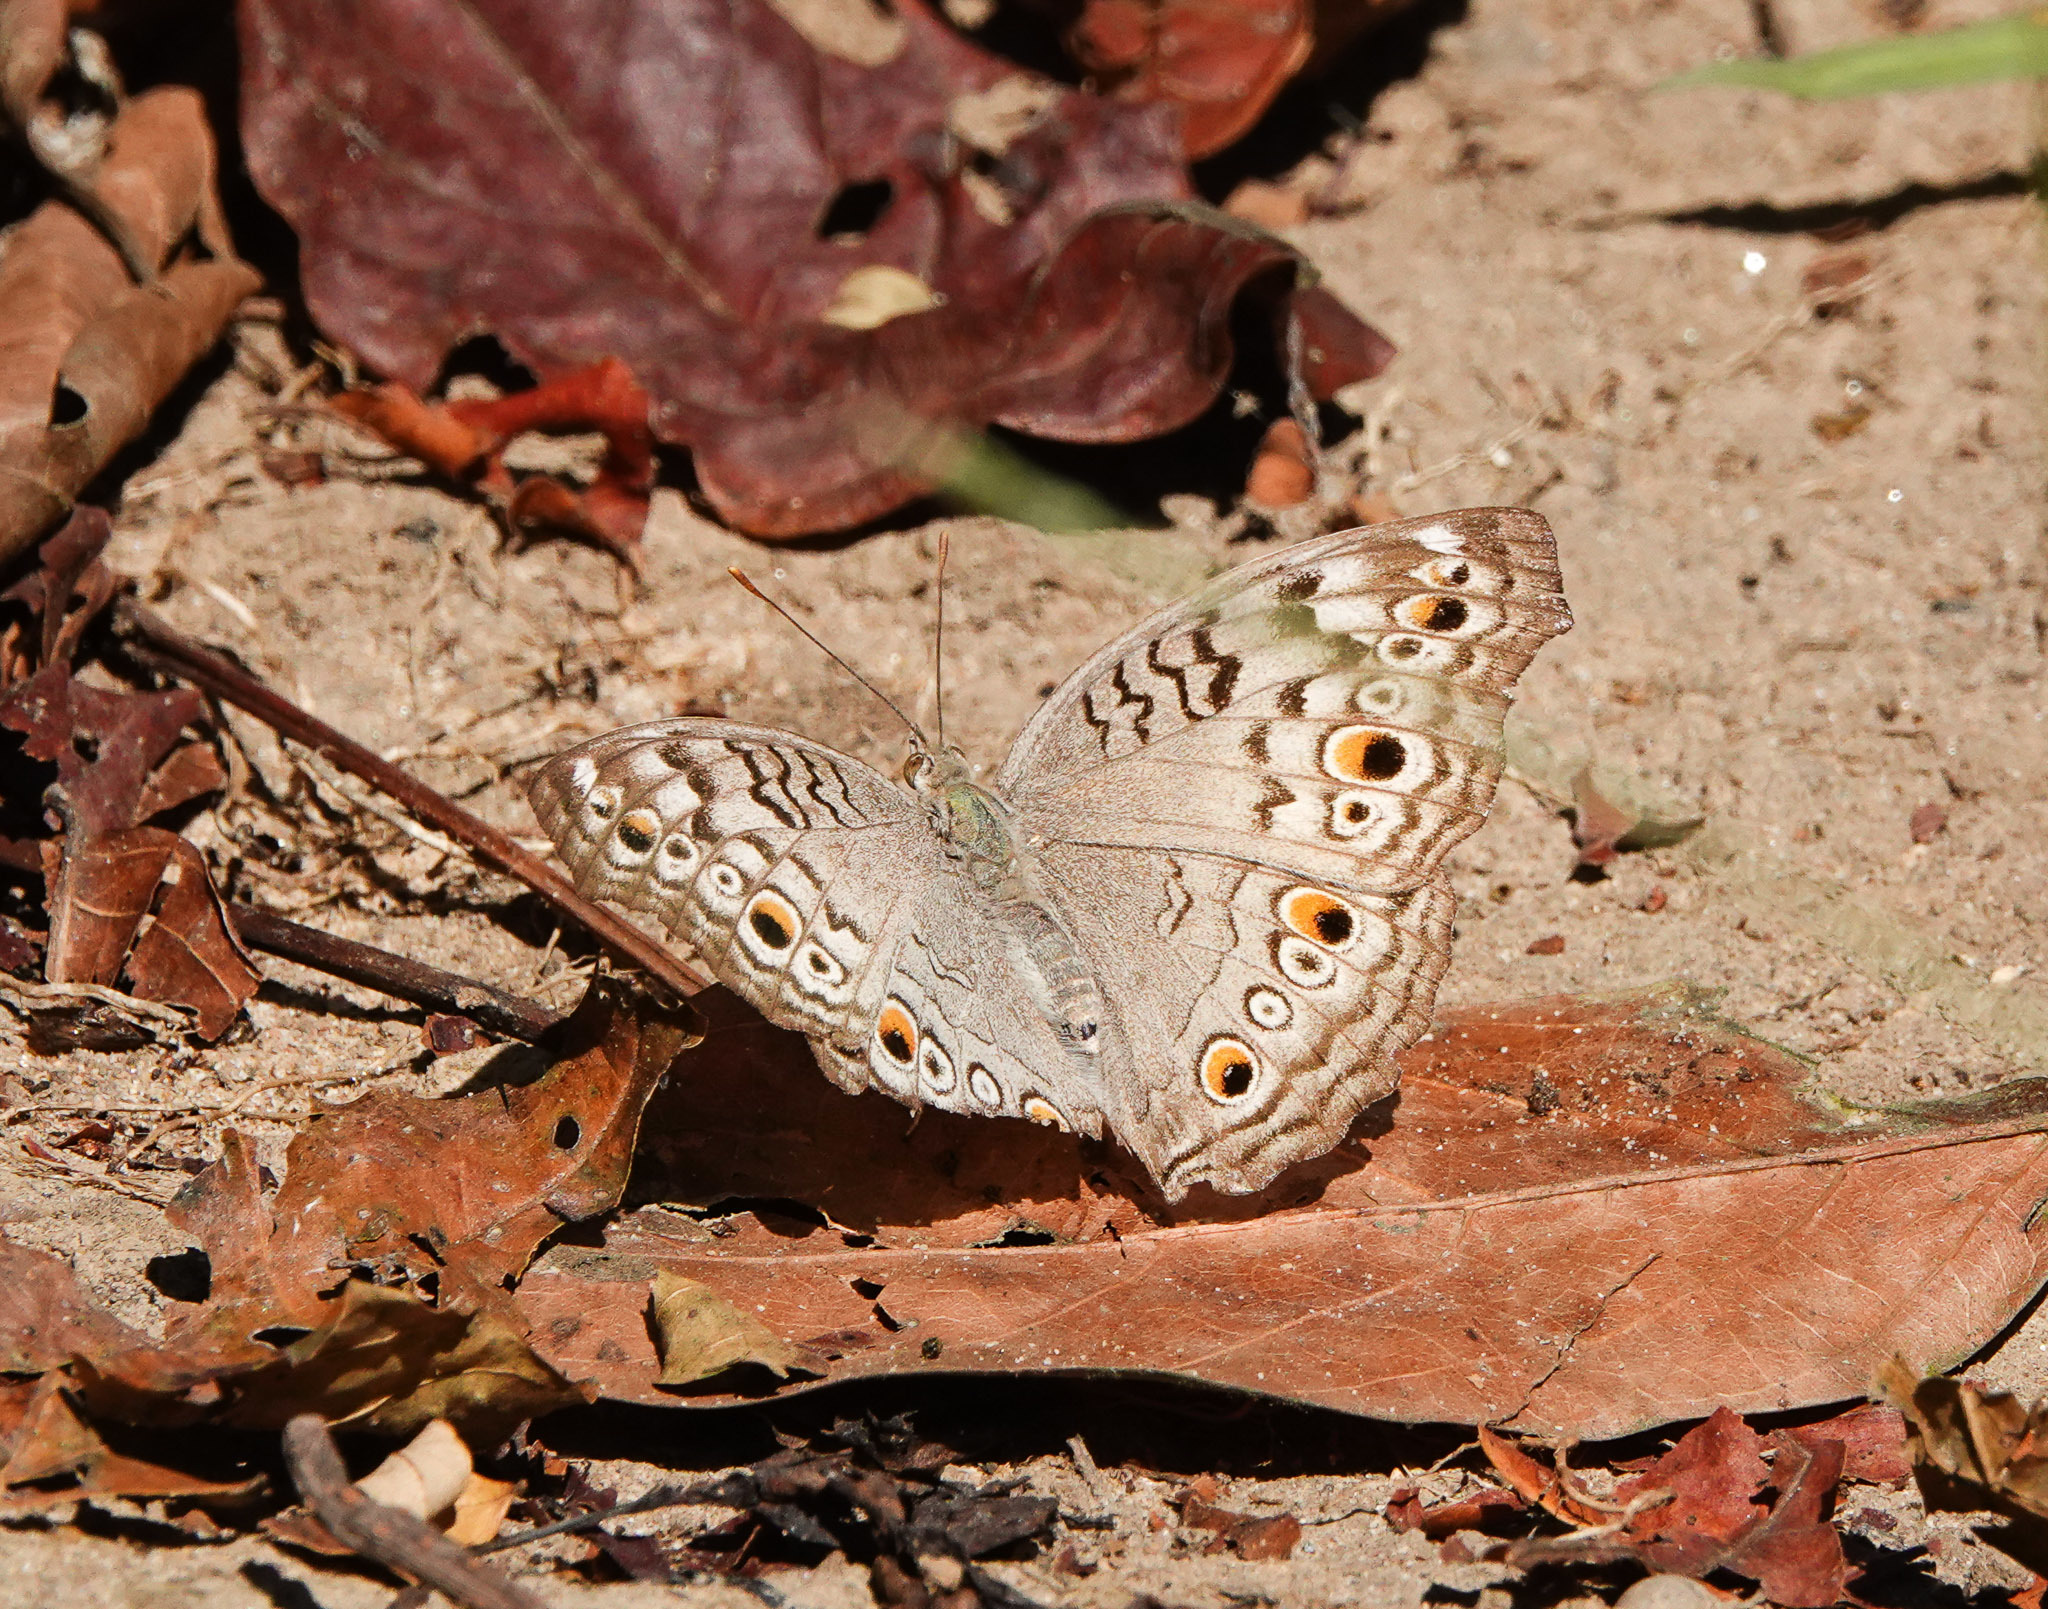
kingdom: Animalia
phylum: Arthropoda
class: Insecta
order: Lepidoptera
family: Nymphalidae
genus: Junonia
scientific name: Junonia atlites
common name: Grey pansy
